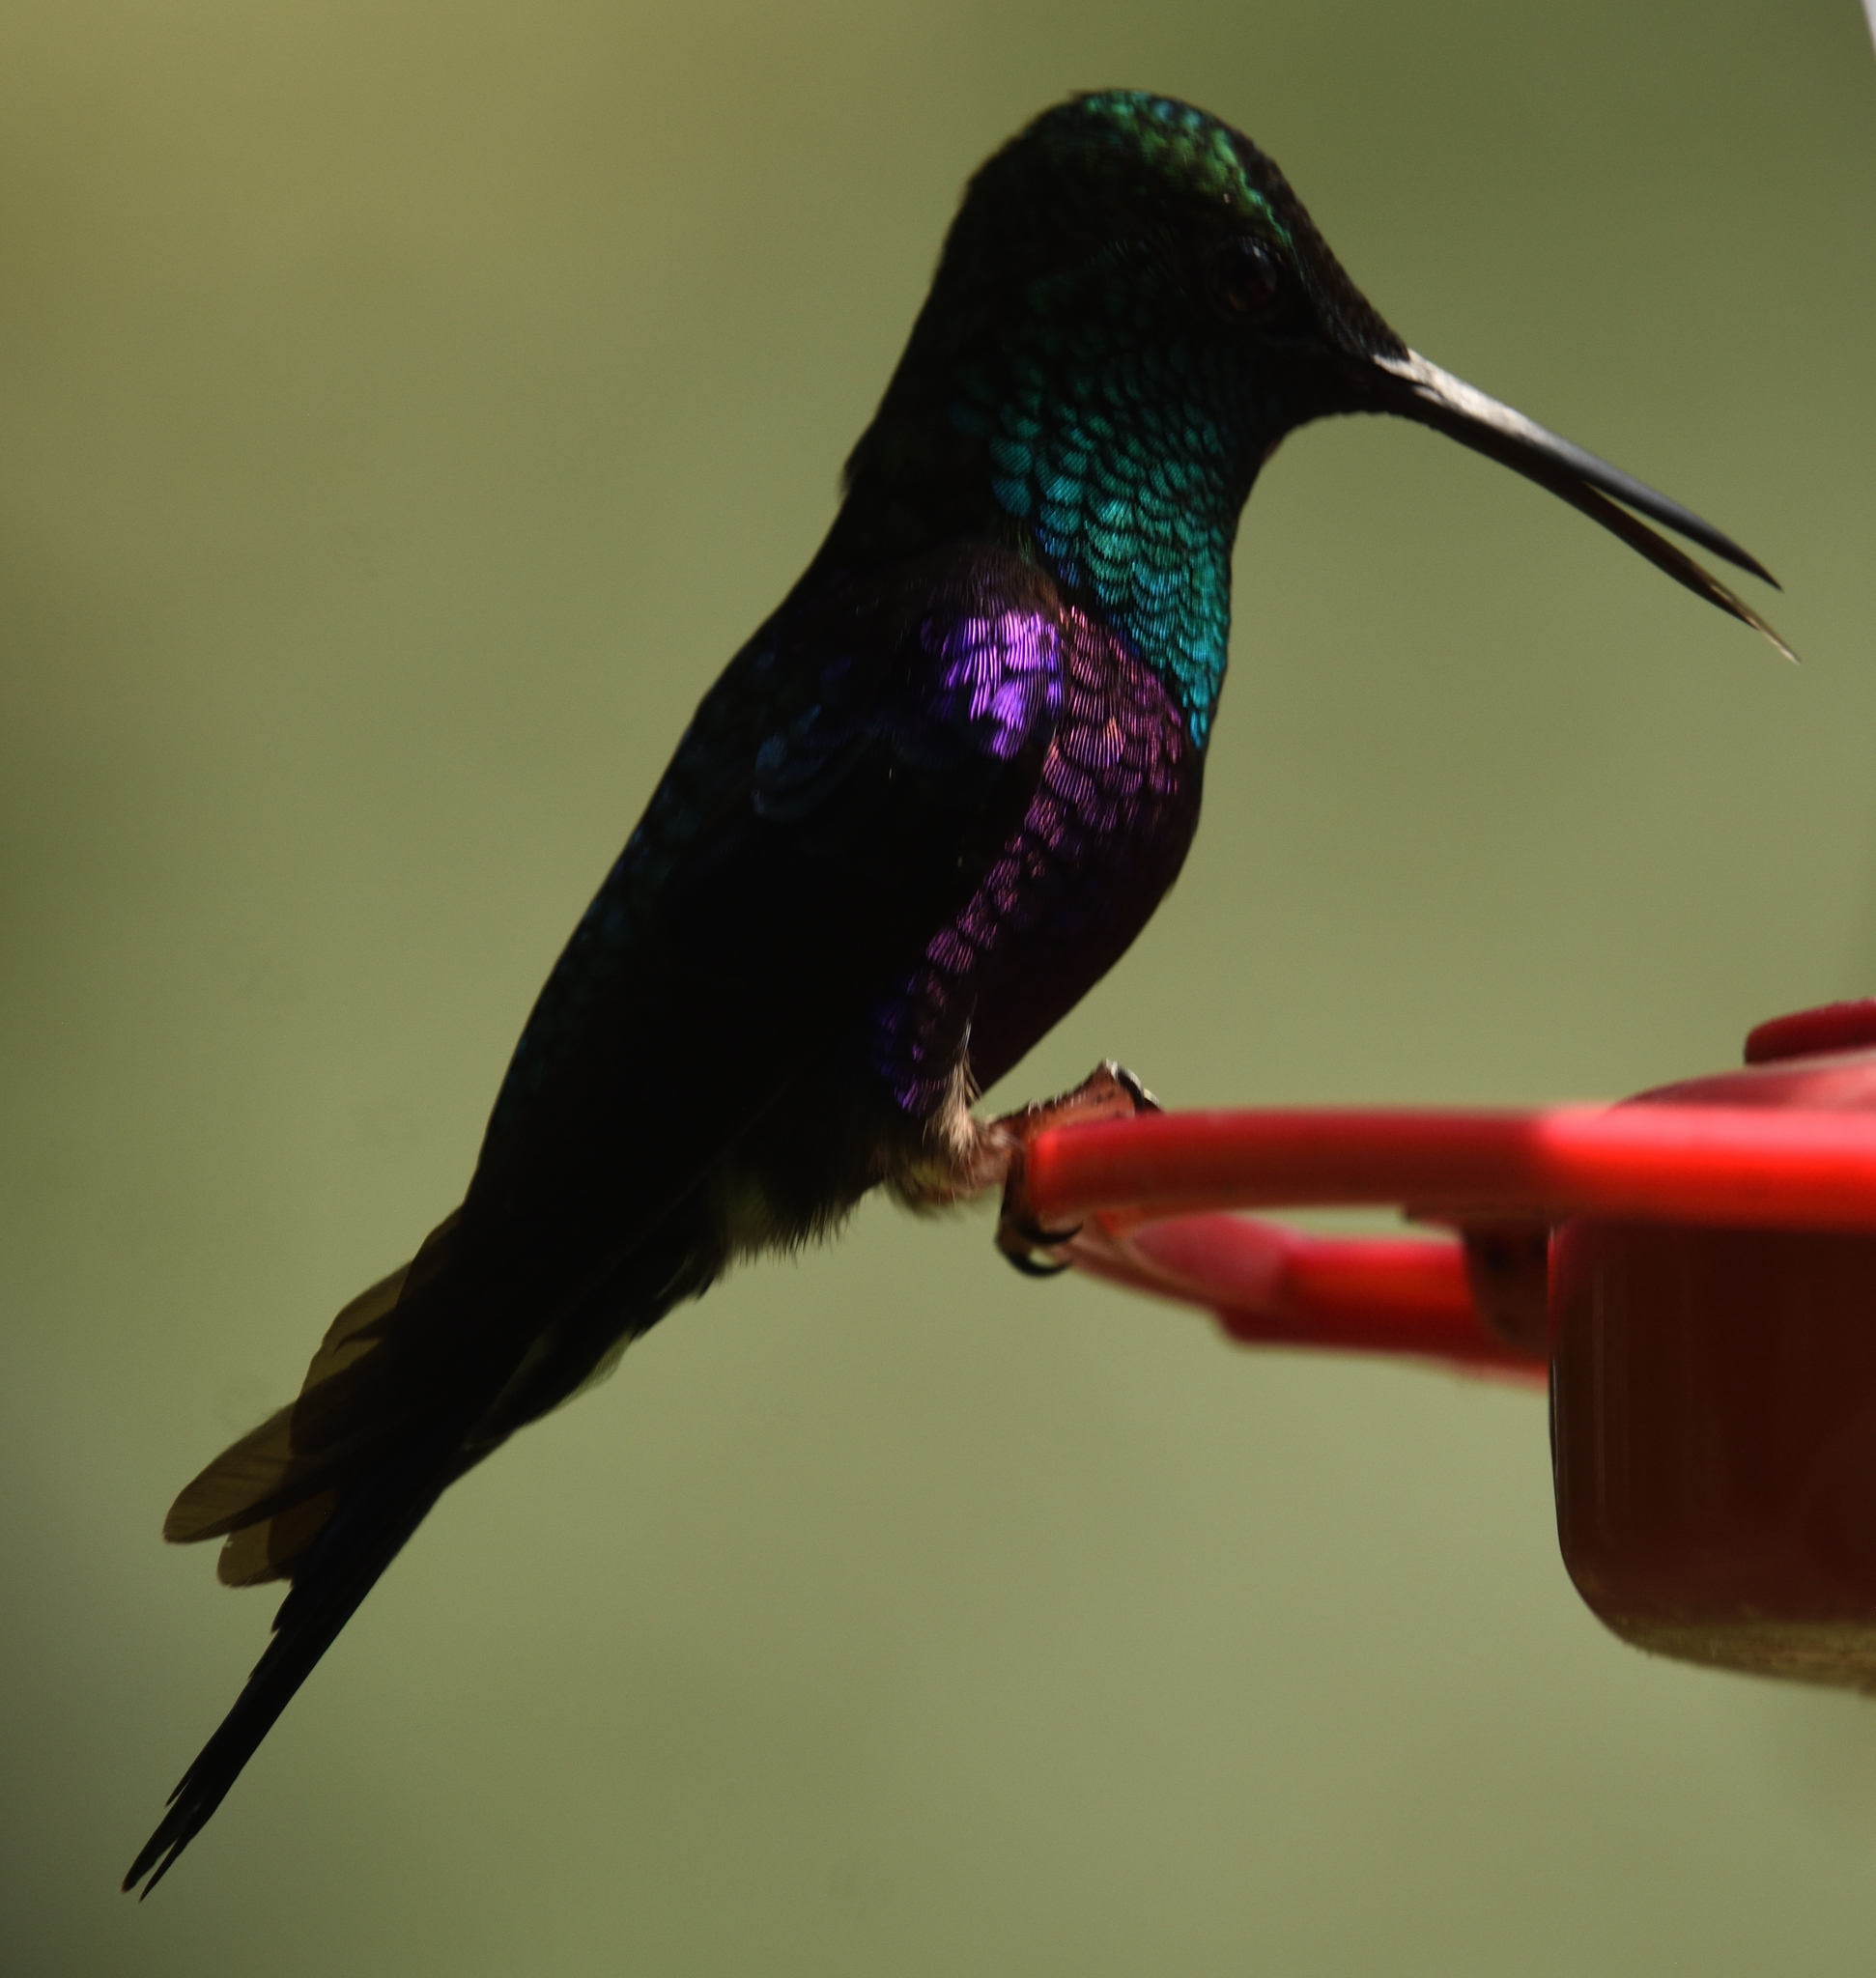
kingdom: Animalia
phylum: Chordata
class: Aves
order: Apodiformes
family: Trochilidae
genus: Thalurania
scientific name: Thalurania colombica
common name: Crowned woodnymph
